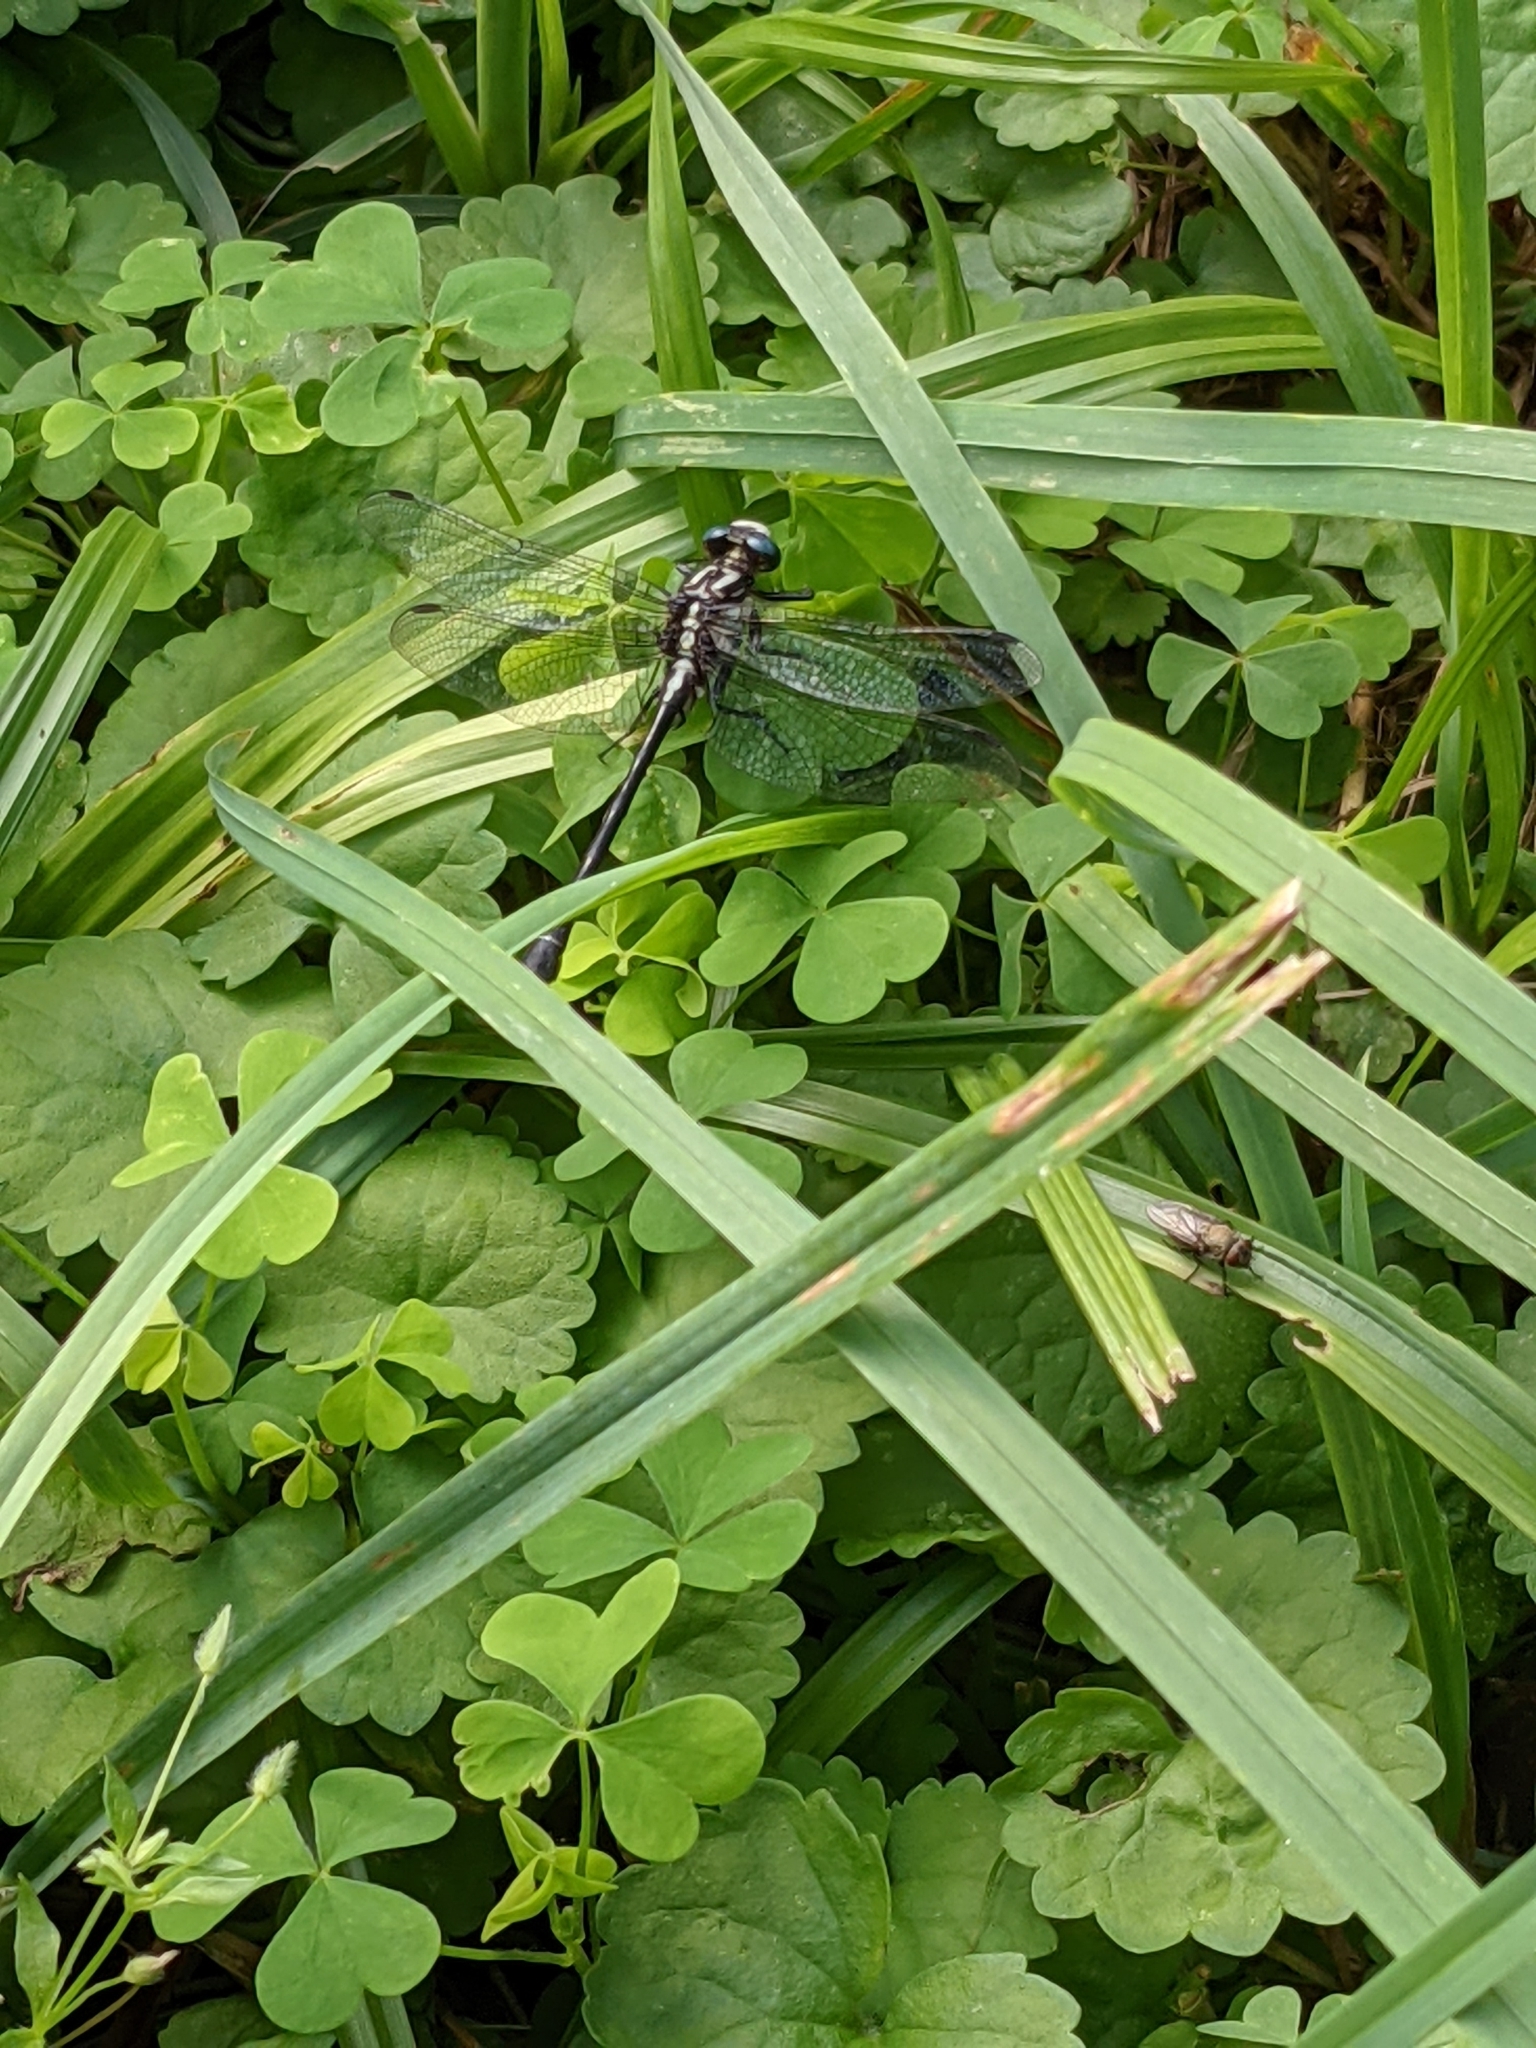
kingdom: Animalia
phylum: Arthropoda
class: Insecta
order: Odonata
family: Gomphidae
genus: Phanogomphus
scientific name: Phanogomphus quadricolor
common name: Rapids clubtail
